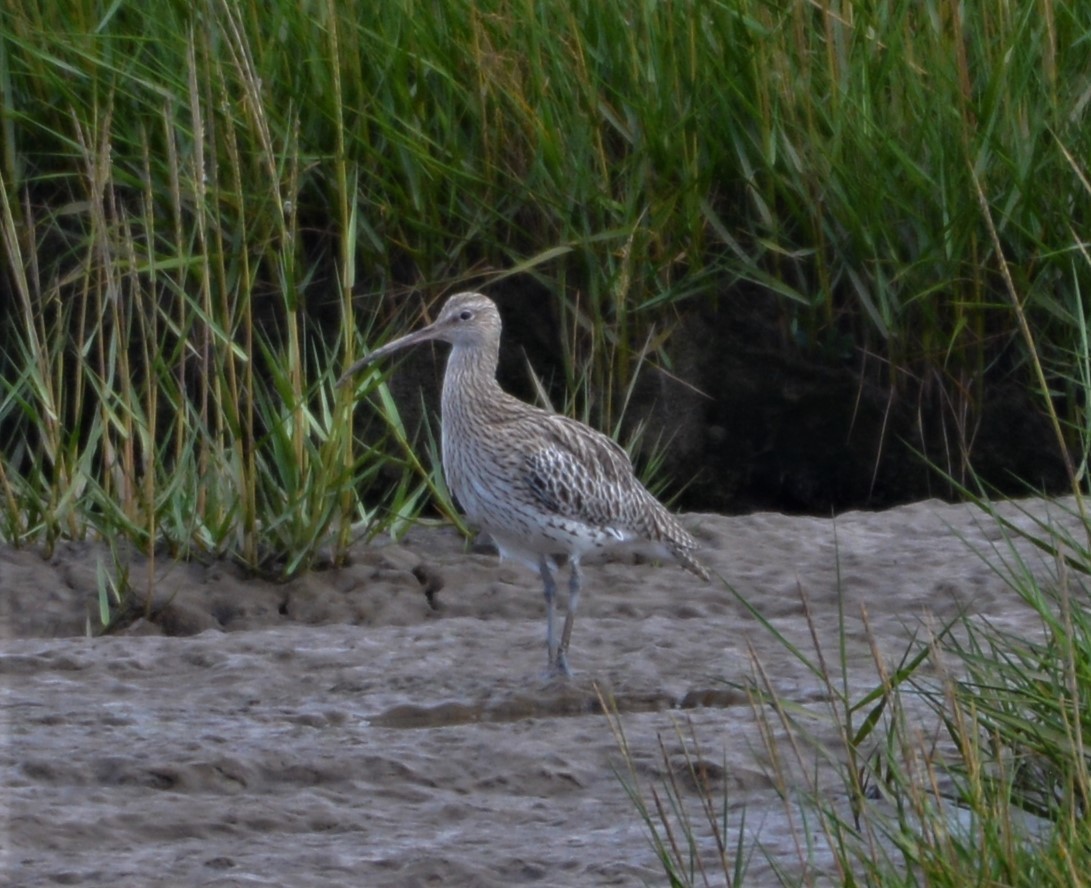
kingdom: Animalia
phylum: Chordata
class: Aves
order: Charadriiformes
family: Scolopacidae
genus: Numenius
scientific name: Numenius arquata
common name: Eurasian curlew
